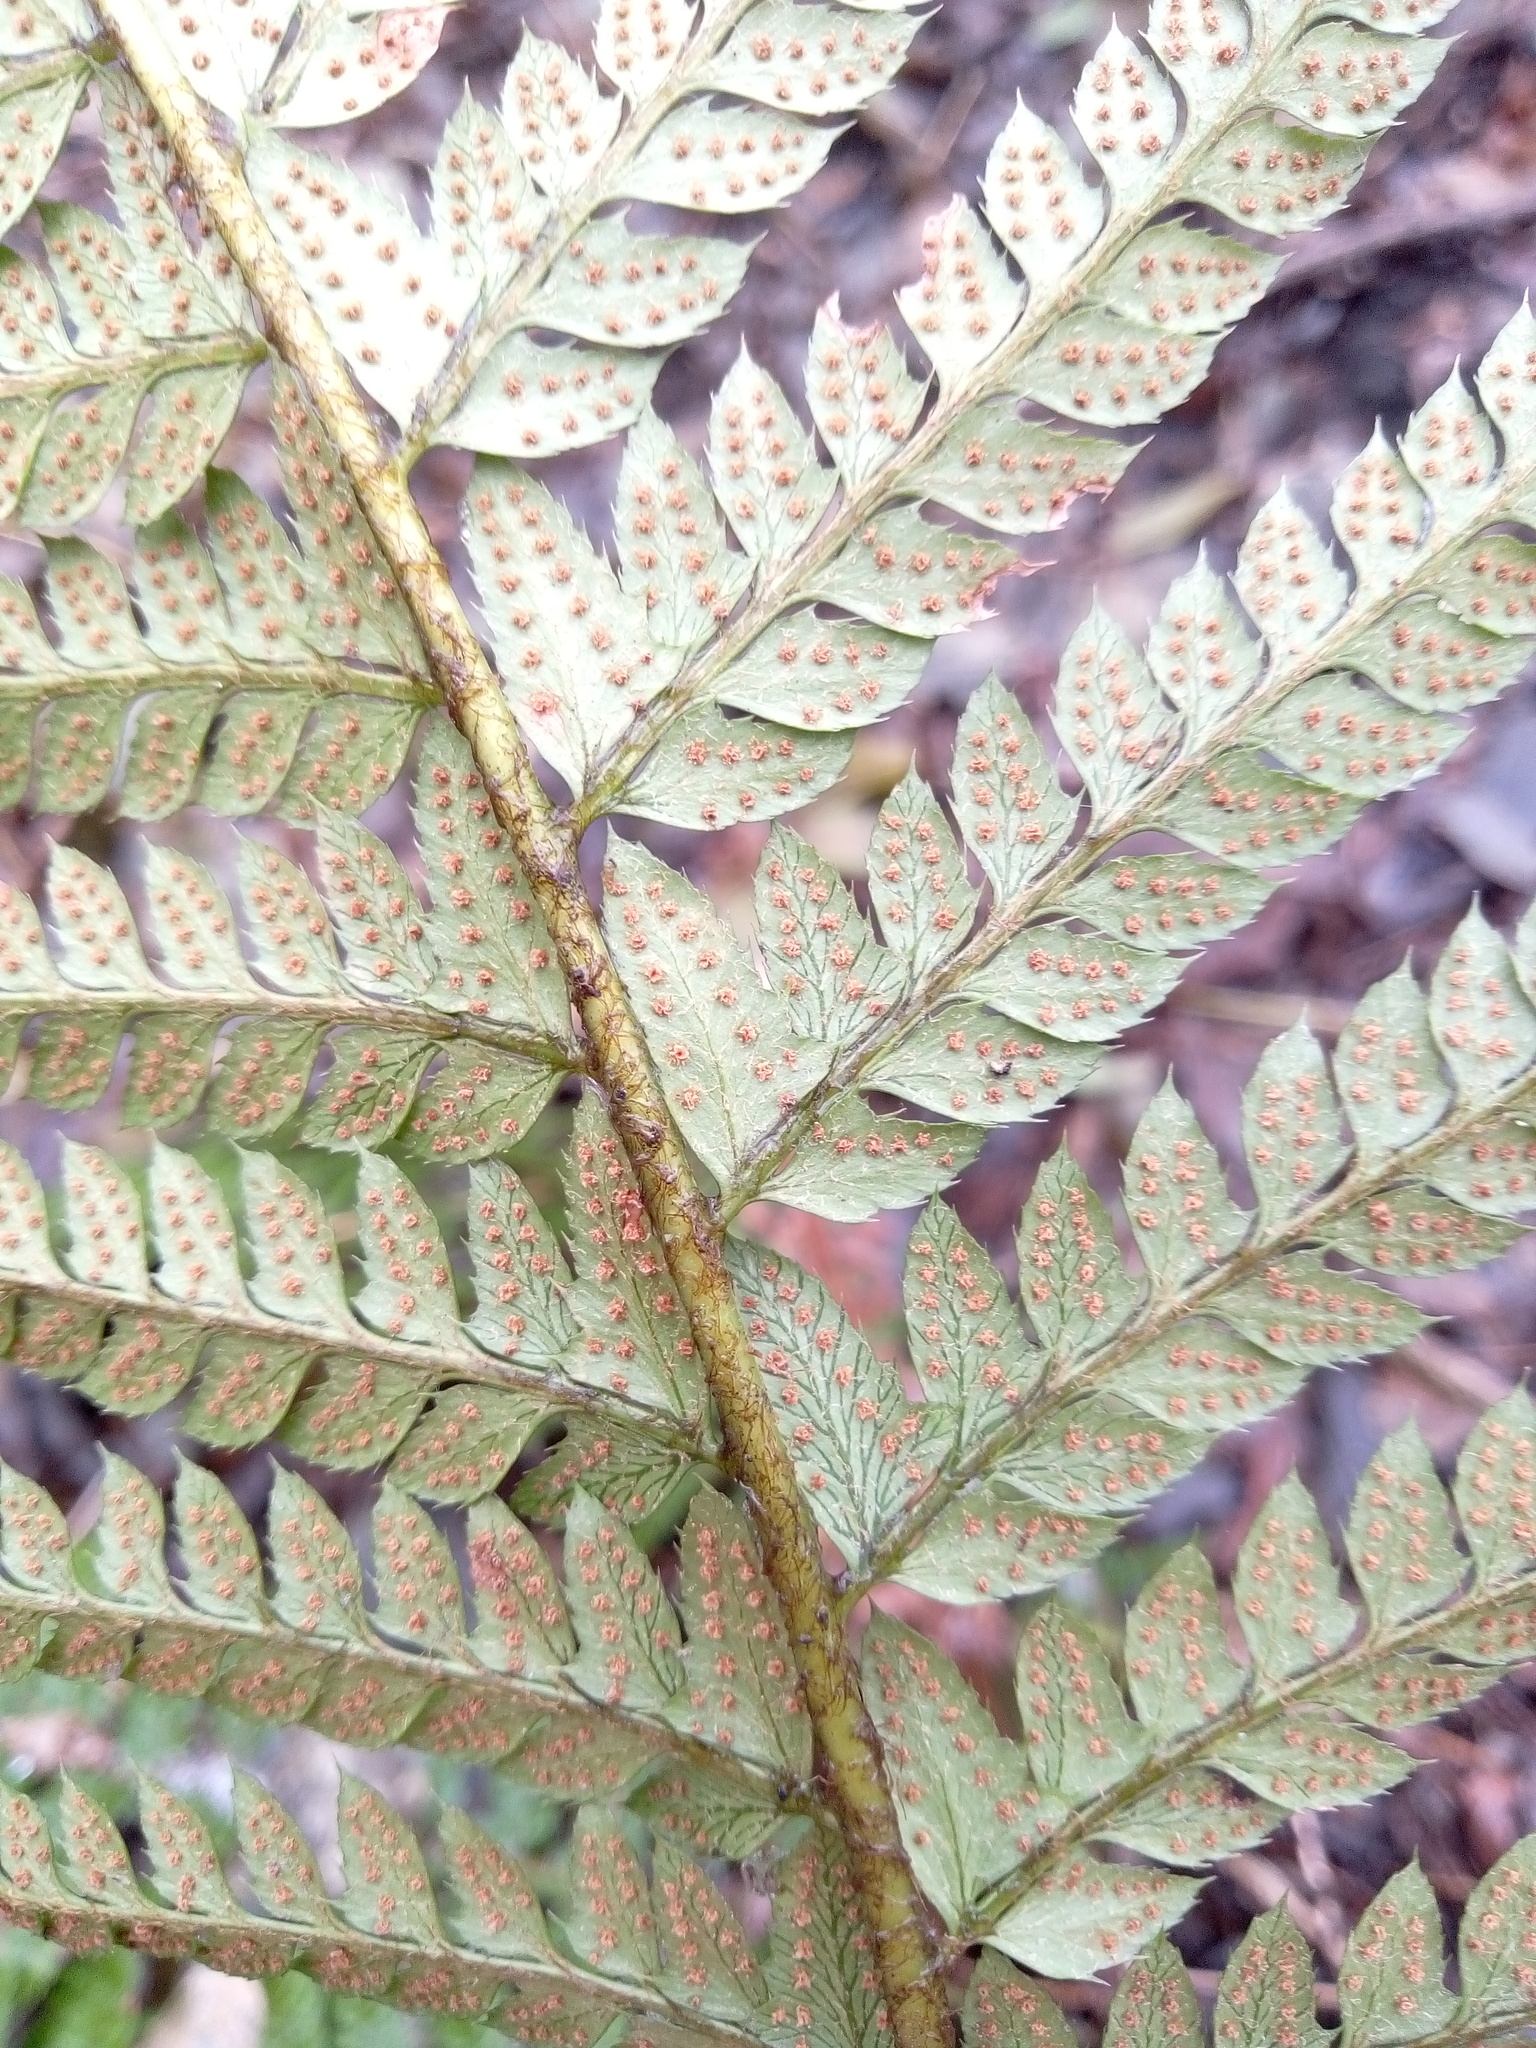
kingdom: Plantae
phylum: Tracheophyta
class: Polypodiopsida
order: Polypodiales
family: Dryopteridaceae
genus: Polystichum
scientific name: Polystichum aculeatum
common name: Hard shield-fern
